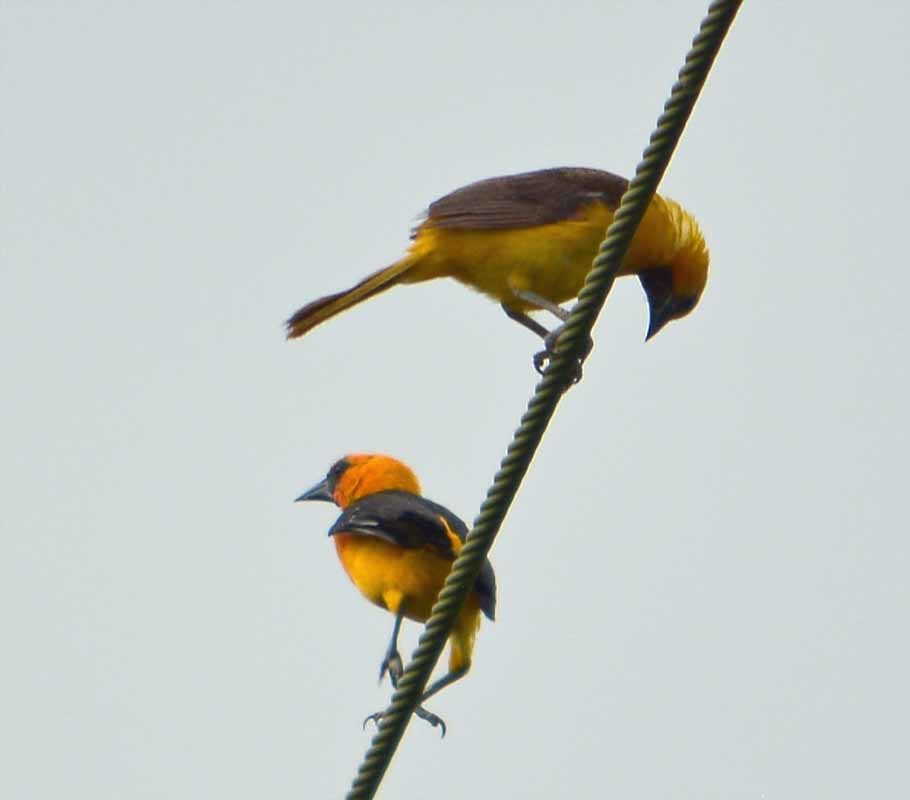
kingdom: Animalia
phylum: Chordata
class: Aves
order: Passeriformes
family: Icteridae
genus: Icterus
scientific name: Icterus gularis
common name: Altamira oriole
